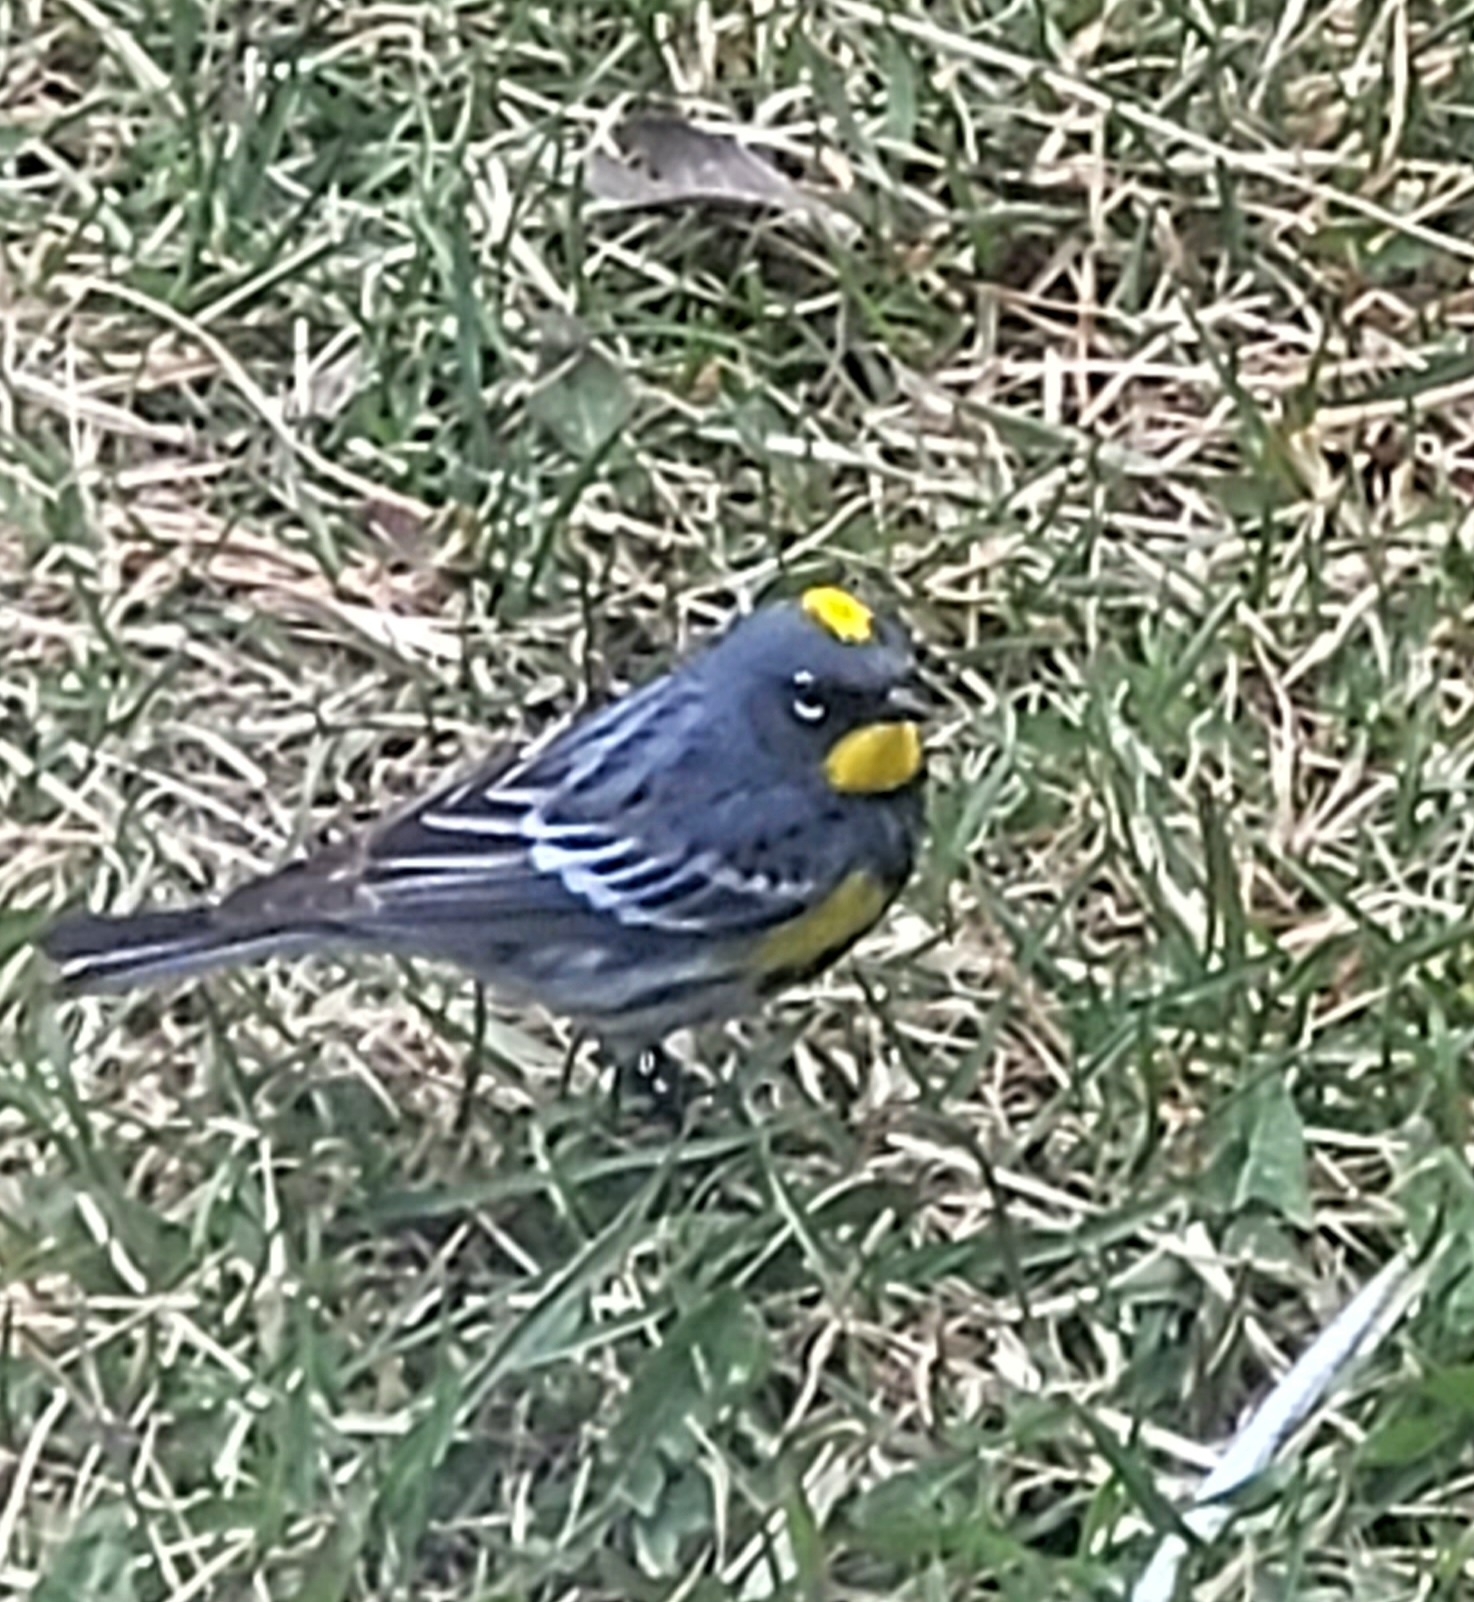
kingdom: Animalia
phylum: Chordata
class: Aves
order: Passeriformes
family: Parulidae
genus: Setophaga
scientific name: Setophaga coronata
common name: Myrtle warbler
